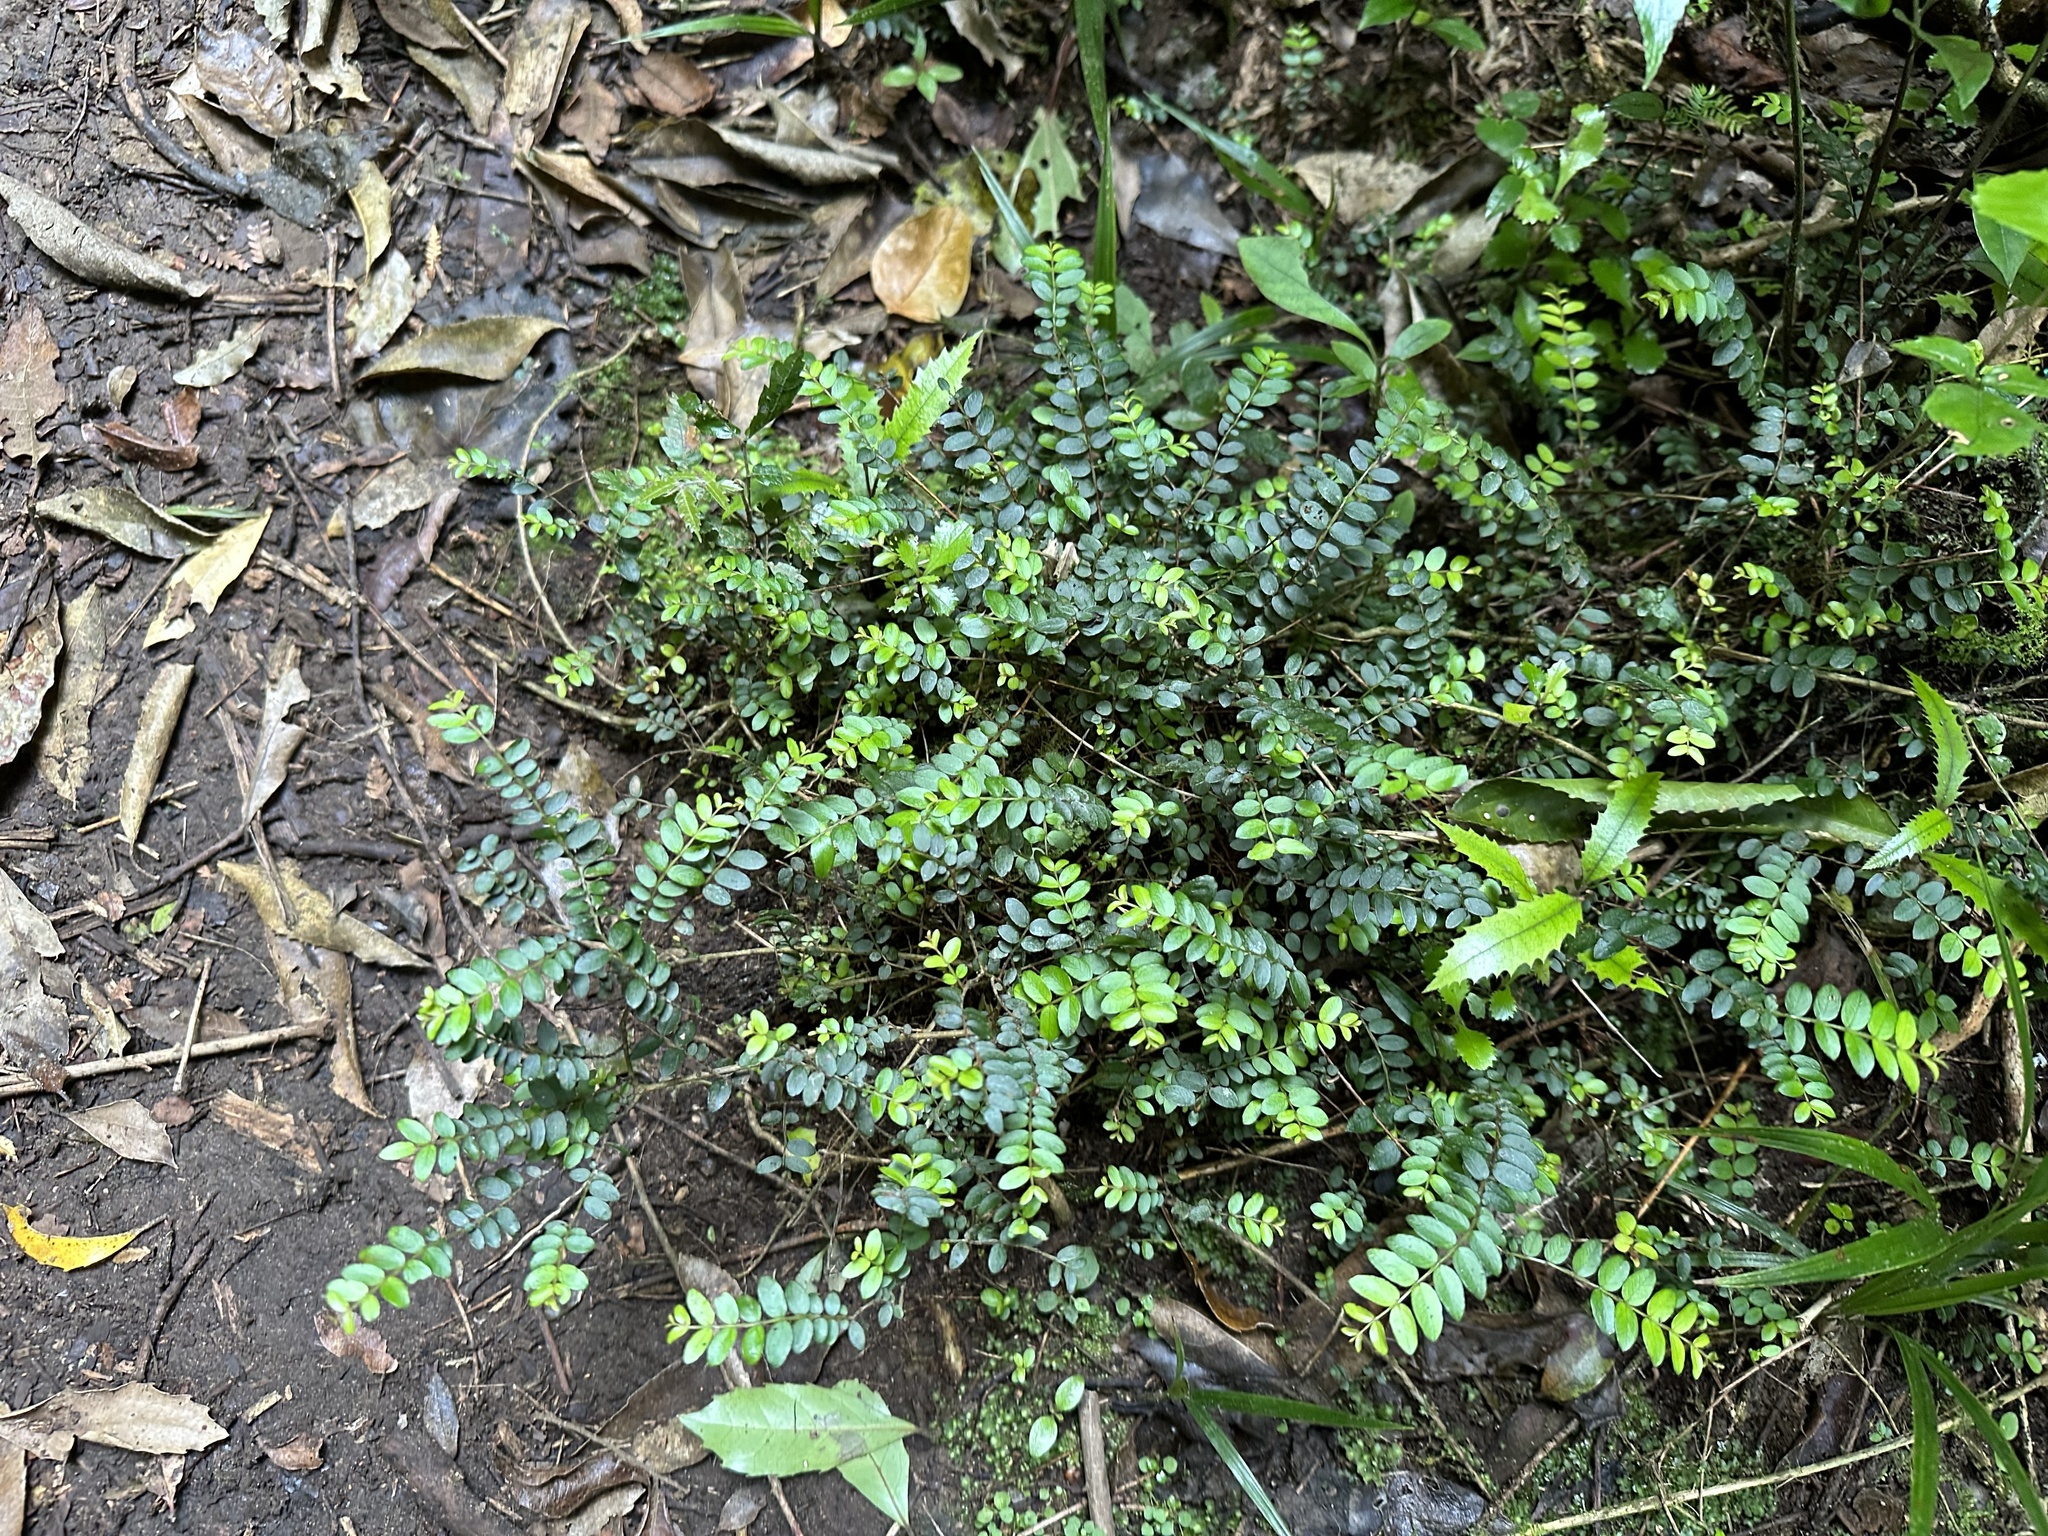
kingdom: Plantae
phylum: Tracheophyta
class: Magnoliopsida
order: Myrtales
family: Myrtaceae
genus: Metrosideros
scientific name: Metrosideros diffusa
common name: Small ratavine
